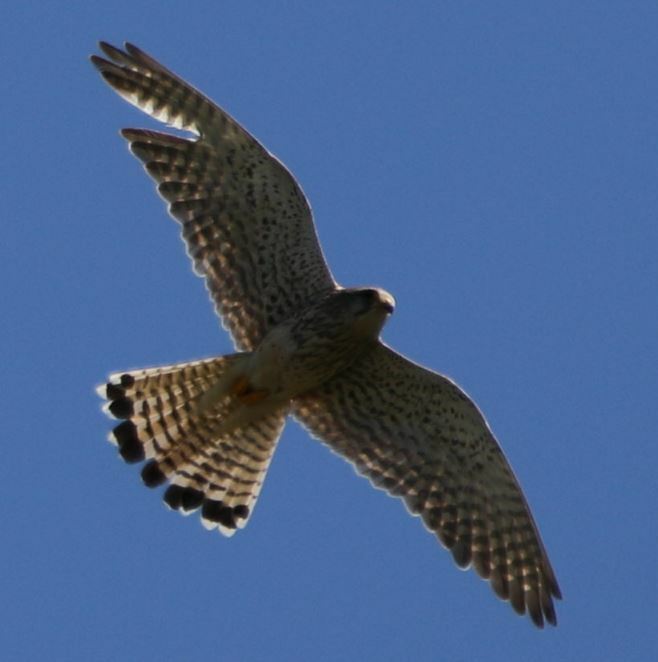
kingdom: Animalia
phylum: Chordata
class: Aves
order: Falconiformes
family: Falconidae
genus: Falco
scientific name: Falco tinnunculus
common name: Common kestrel
